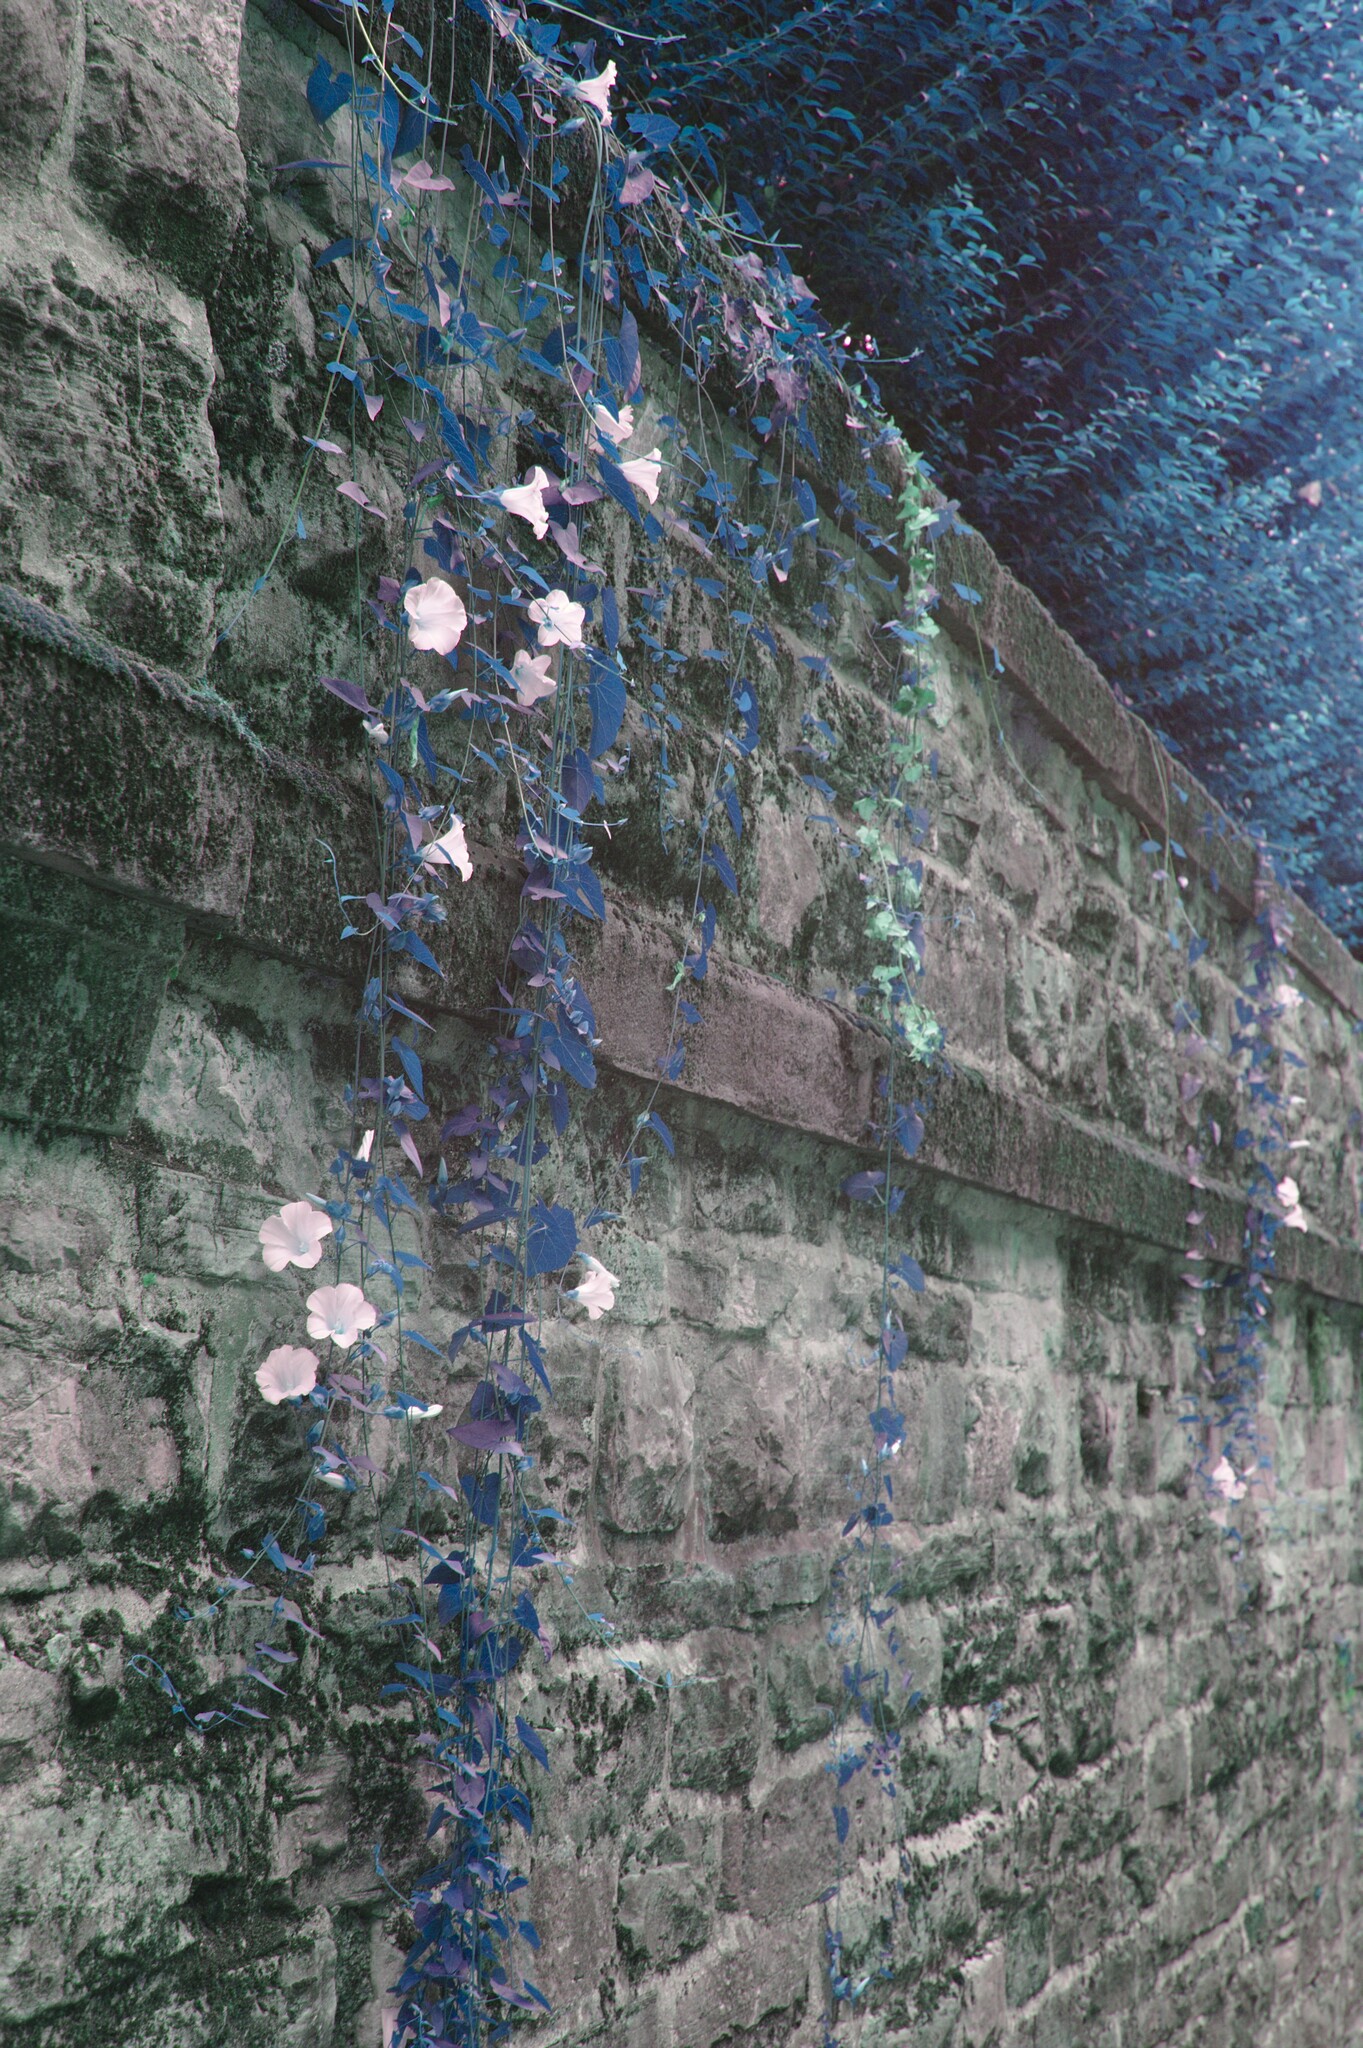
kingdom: Plantae
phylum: Tracheophyta
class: Magnoliopsida
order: Solanales
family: Convolvulaceae
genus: Calystegia
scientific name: Calystegia sepium
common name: Hedge bindweed
